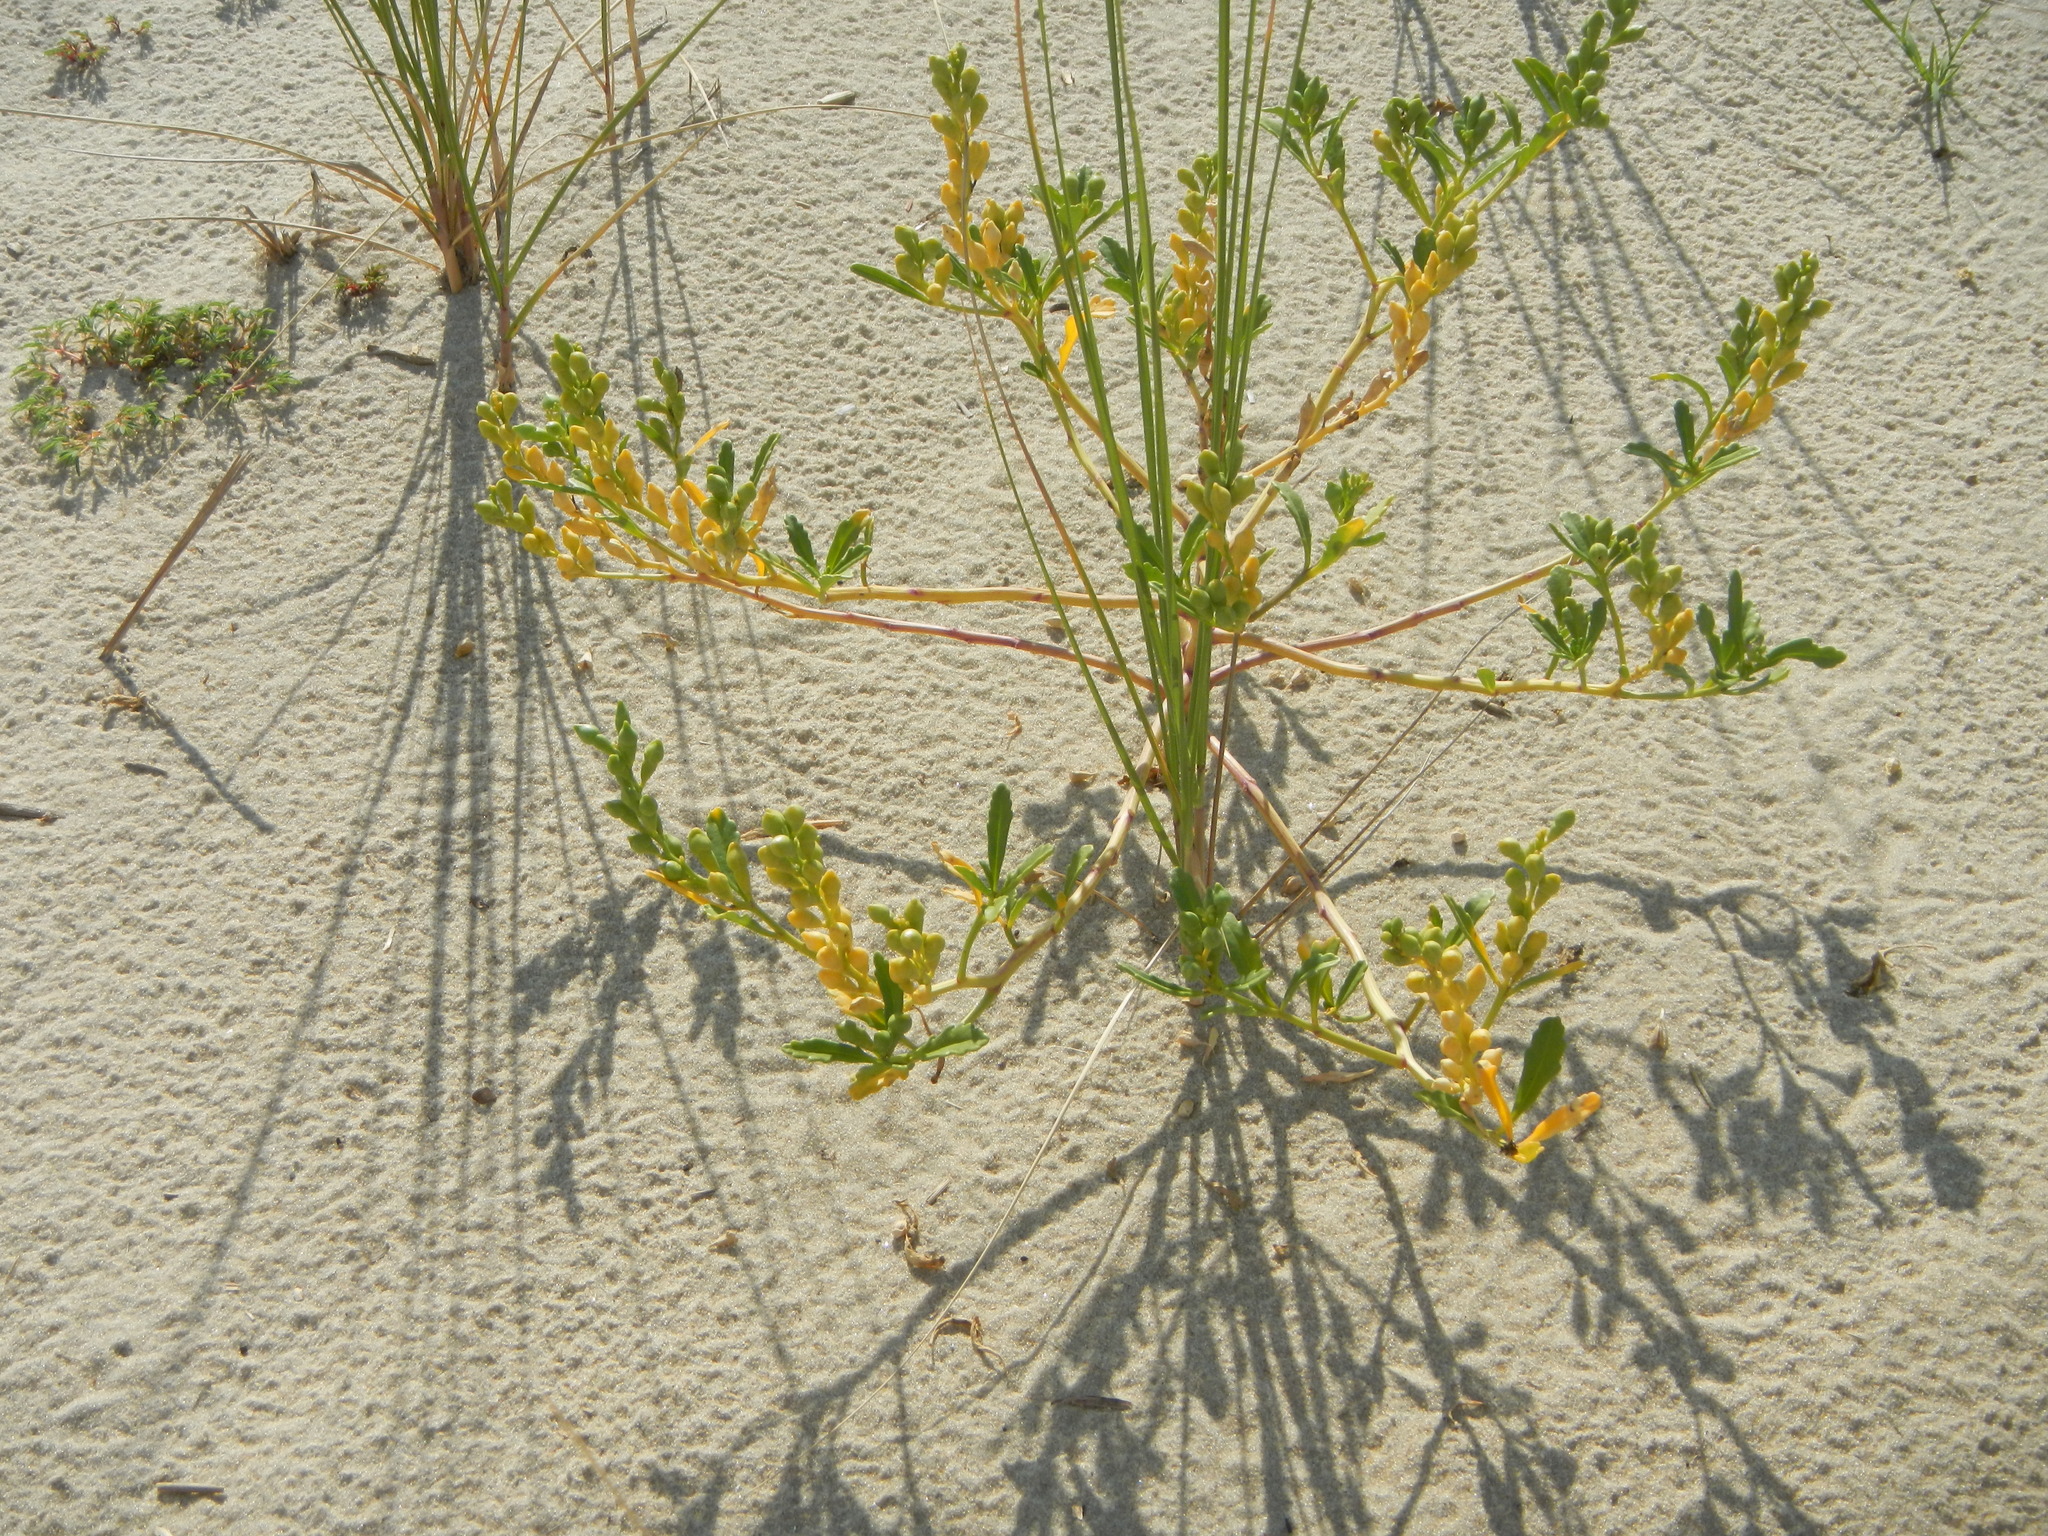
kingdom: Plantae
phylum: Tracheophyta
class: Magnoliopsida
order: Brassicales
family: Brassicaceae
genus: Cakile
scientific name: Cakile edentula
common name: American sea rocket
